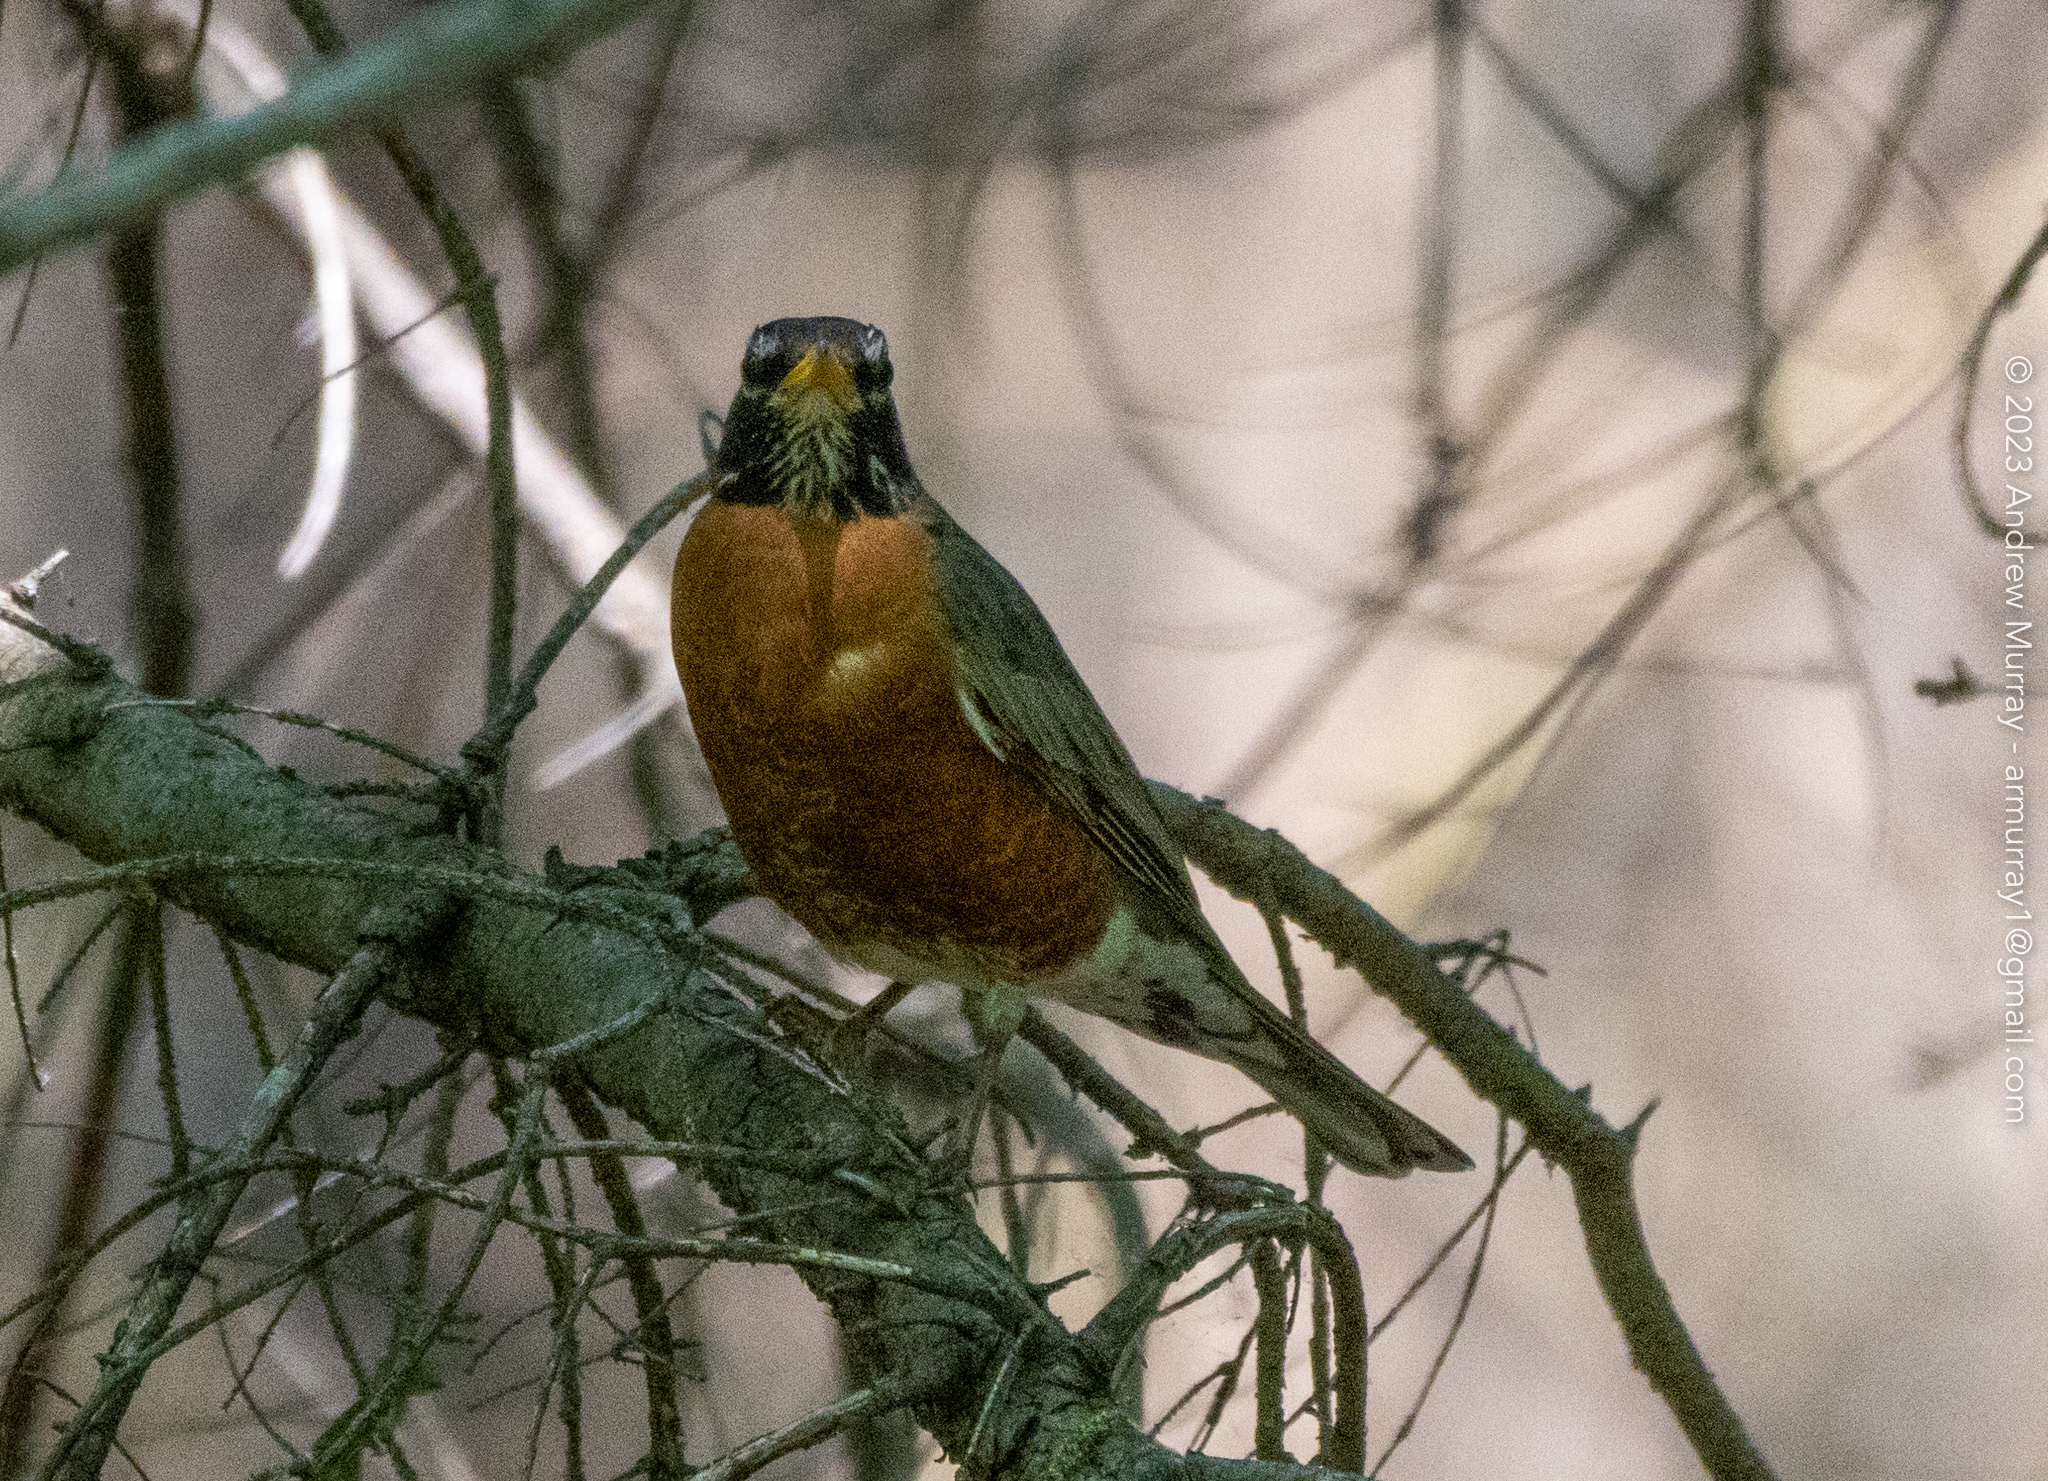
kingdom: Animalia
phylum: Chordata
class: Aves
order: Passeriformes
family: Turdidae
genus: Turdus
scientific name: Turdus migratorius
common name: American robin
